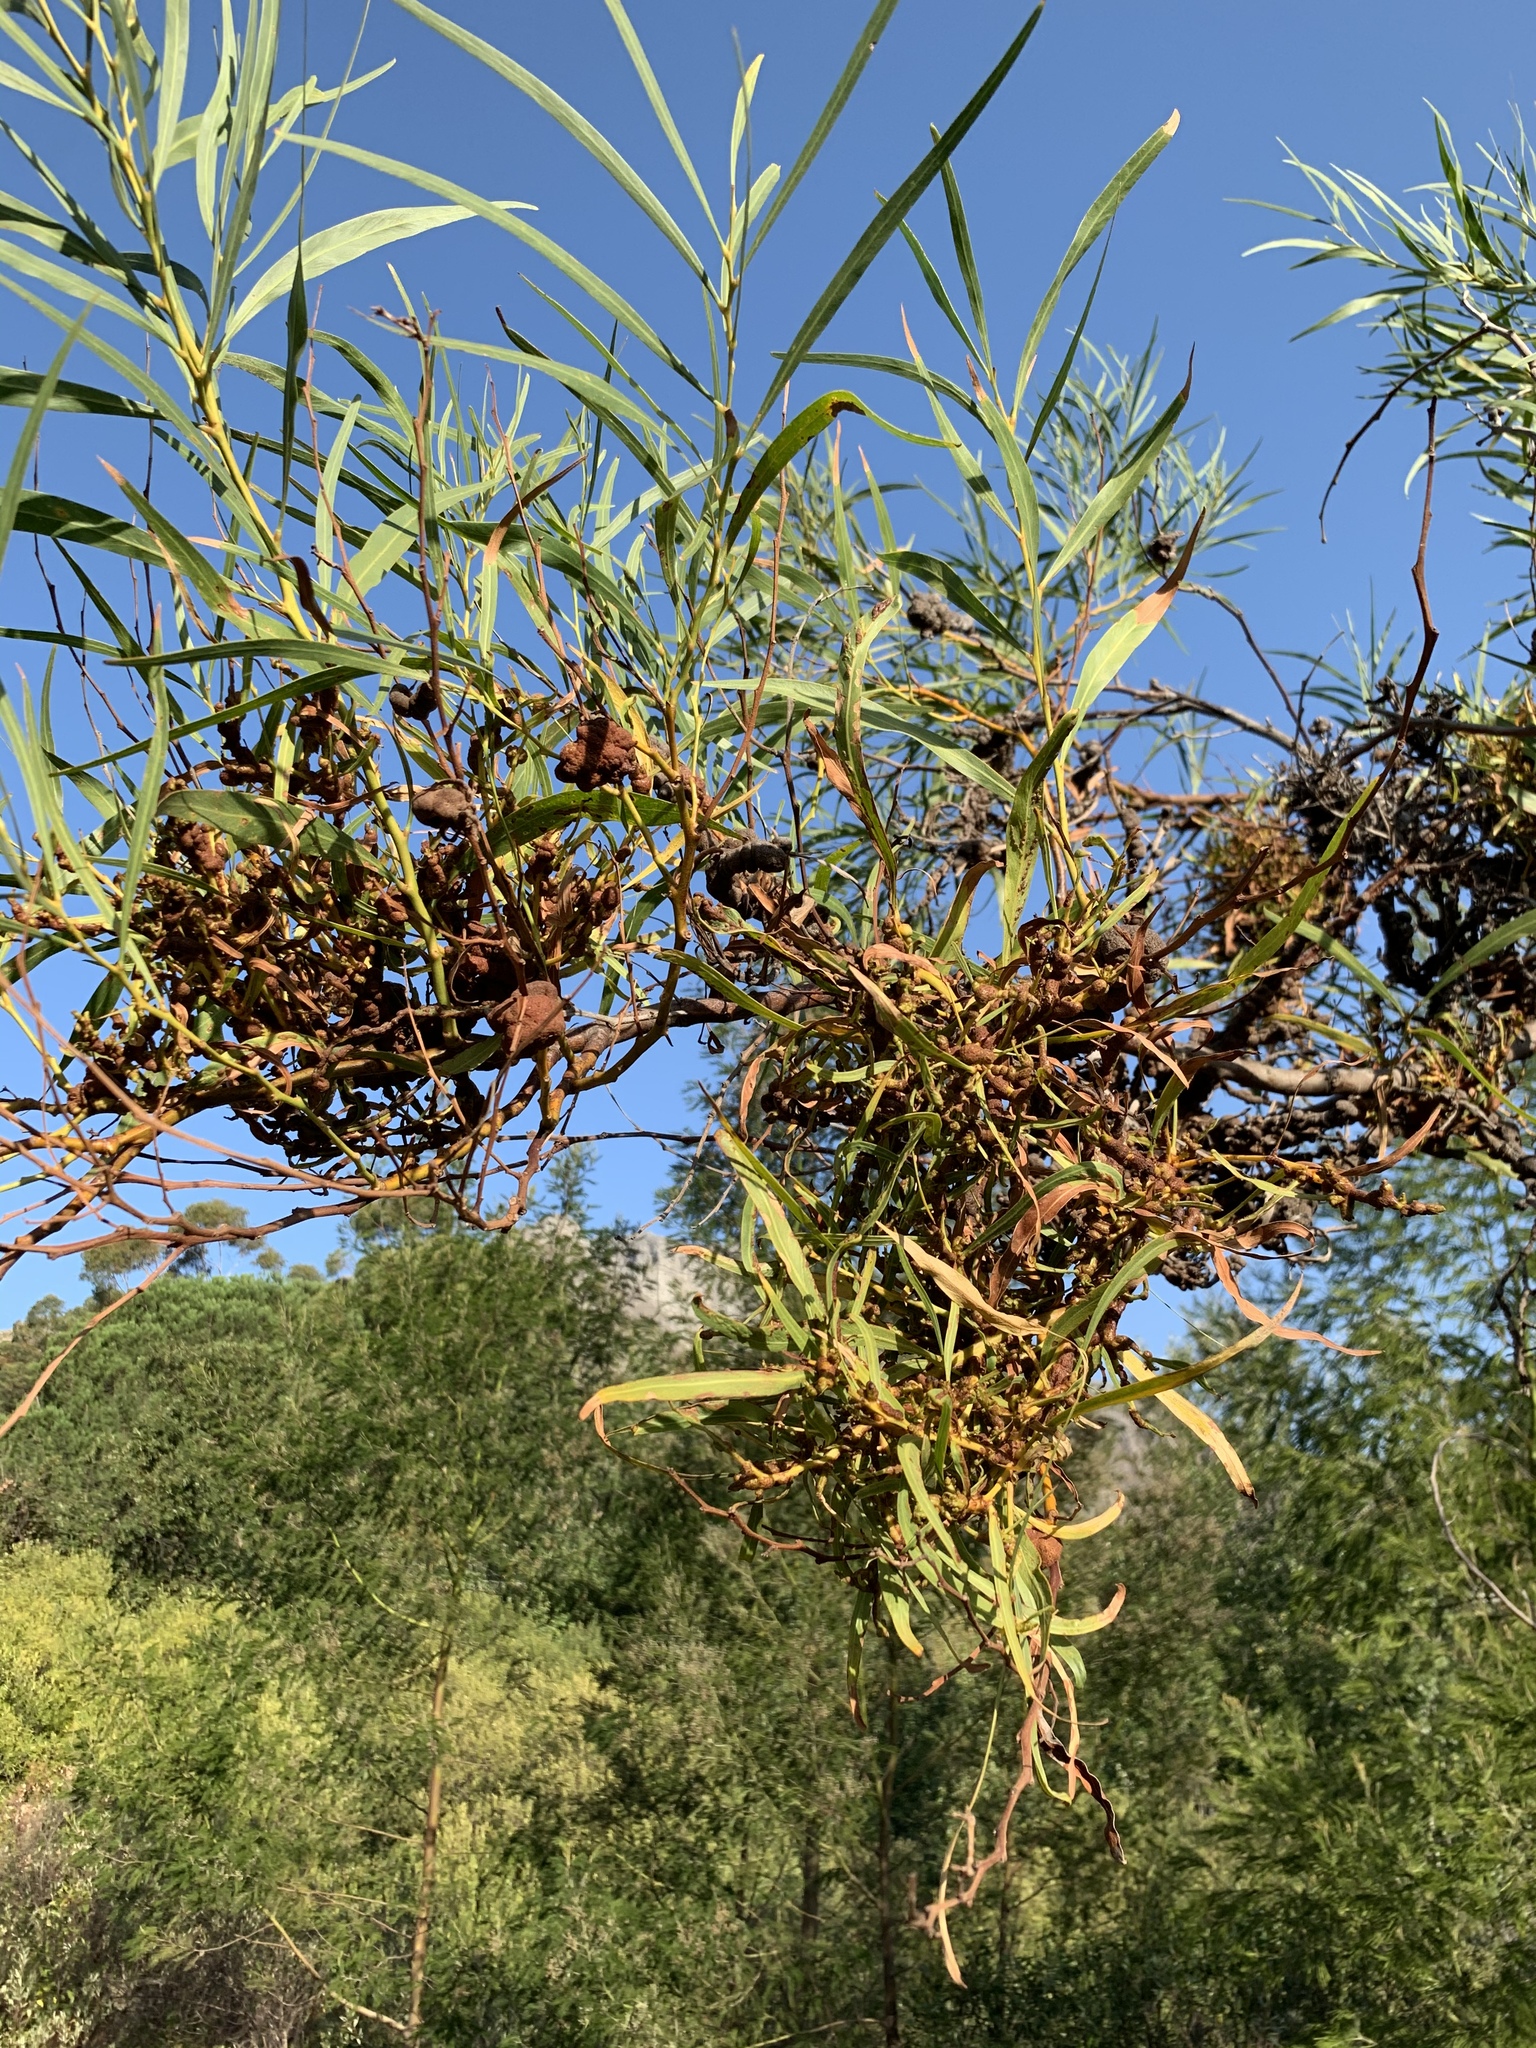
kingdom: Fungi
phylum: Basidiomycota
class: Pucciniomycetes
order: Pucciniales
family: Uromycladiaceae
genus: Uromycladium
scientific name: Uromycladium morrisii
